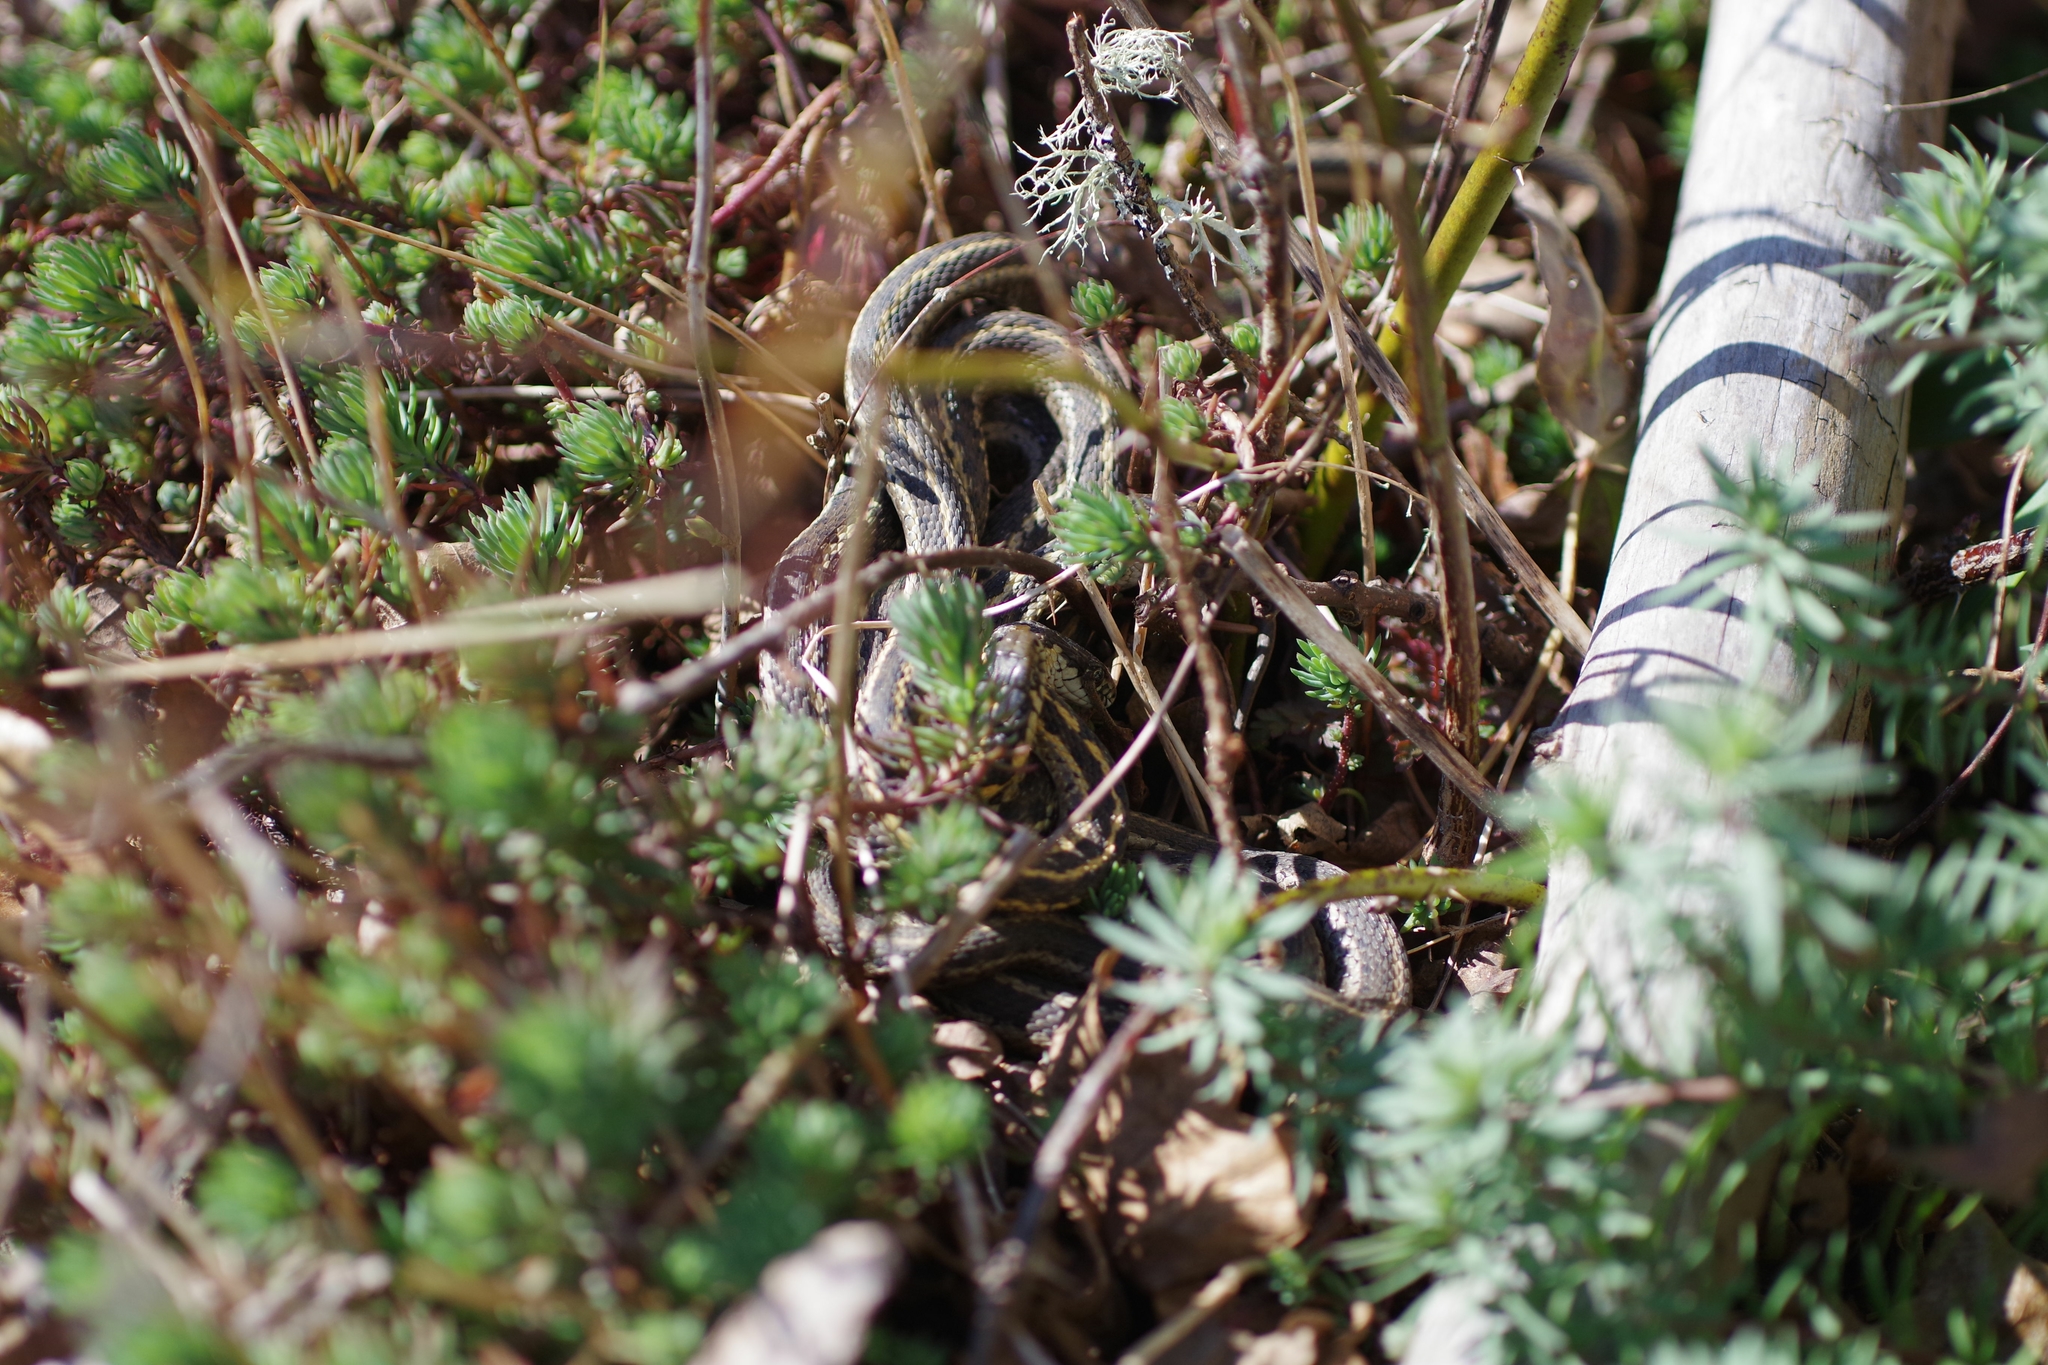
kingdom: Animalia
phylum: Chordata
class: Squamata
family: Colubridae
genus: Thamnophis
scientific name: Thamnophis elegans
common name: Western terrestrial garter snake
